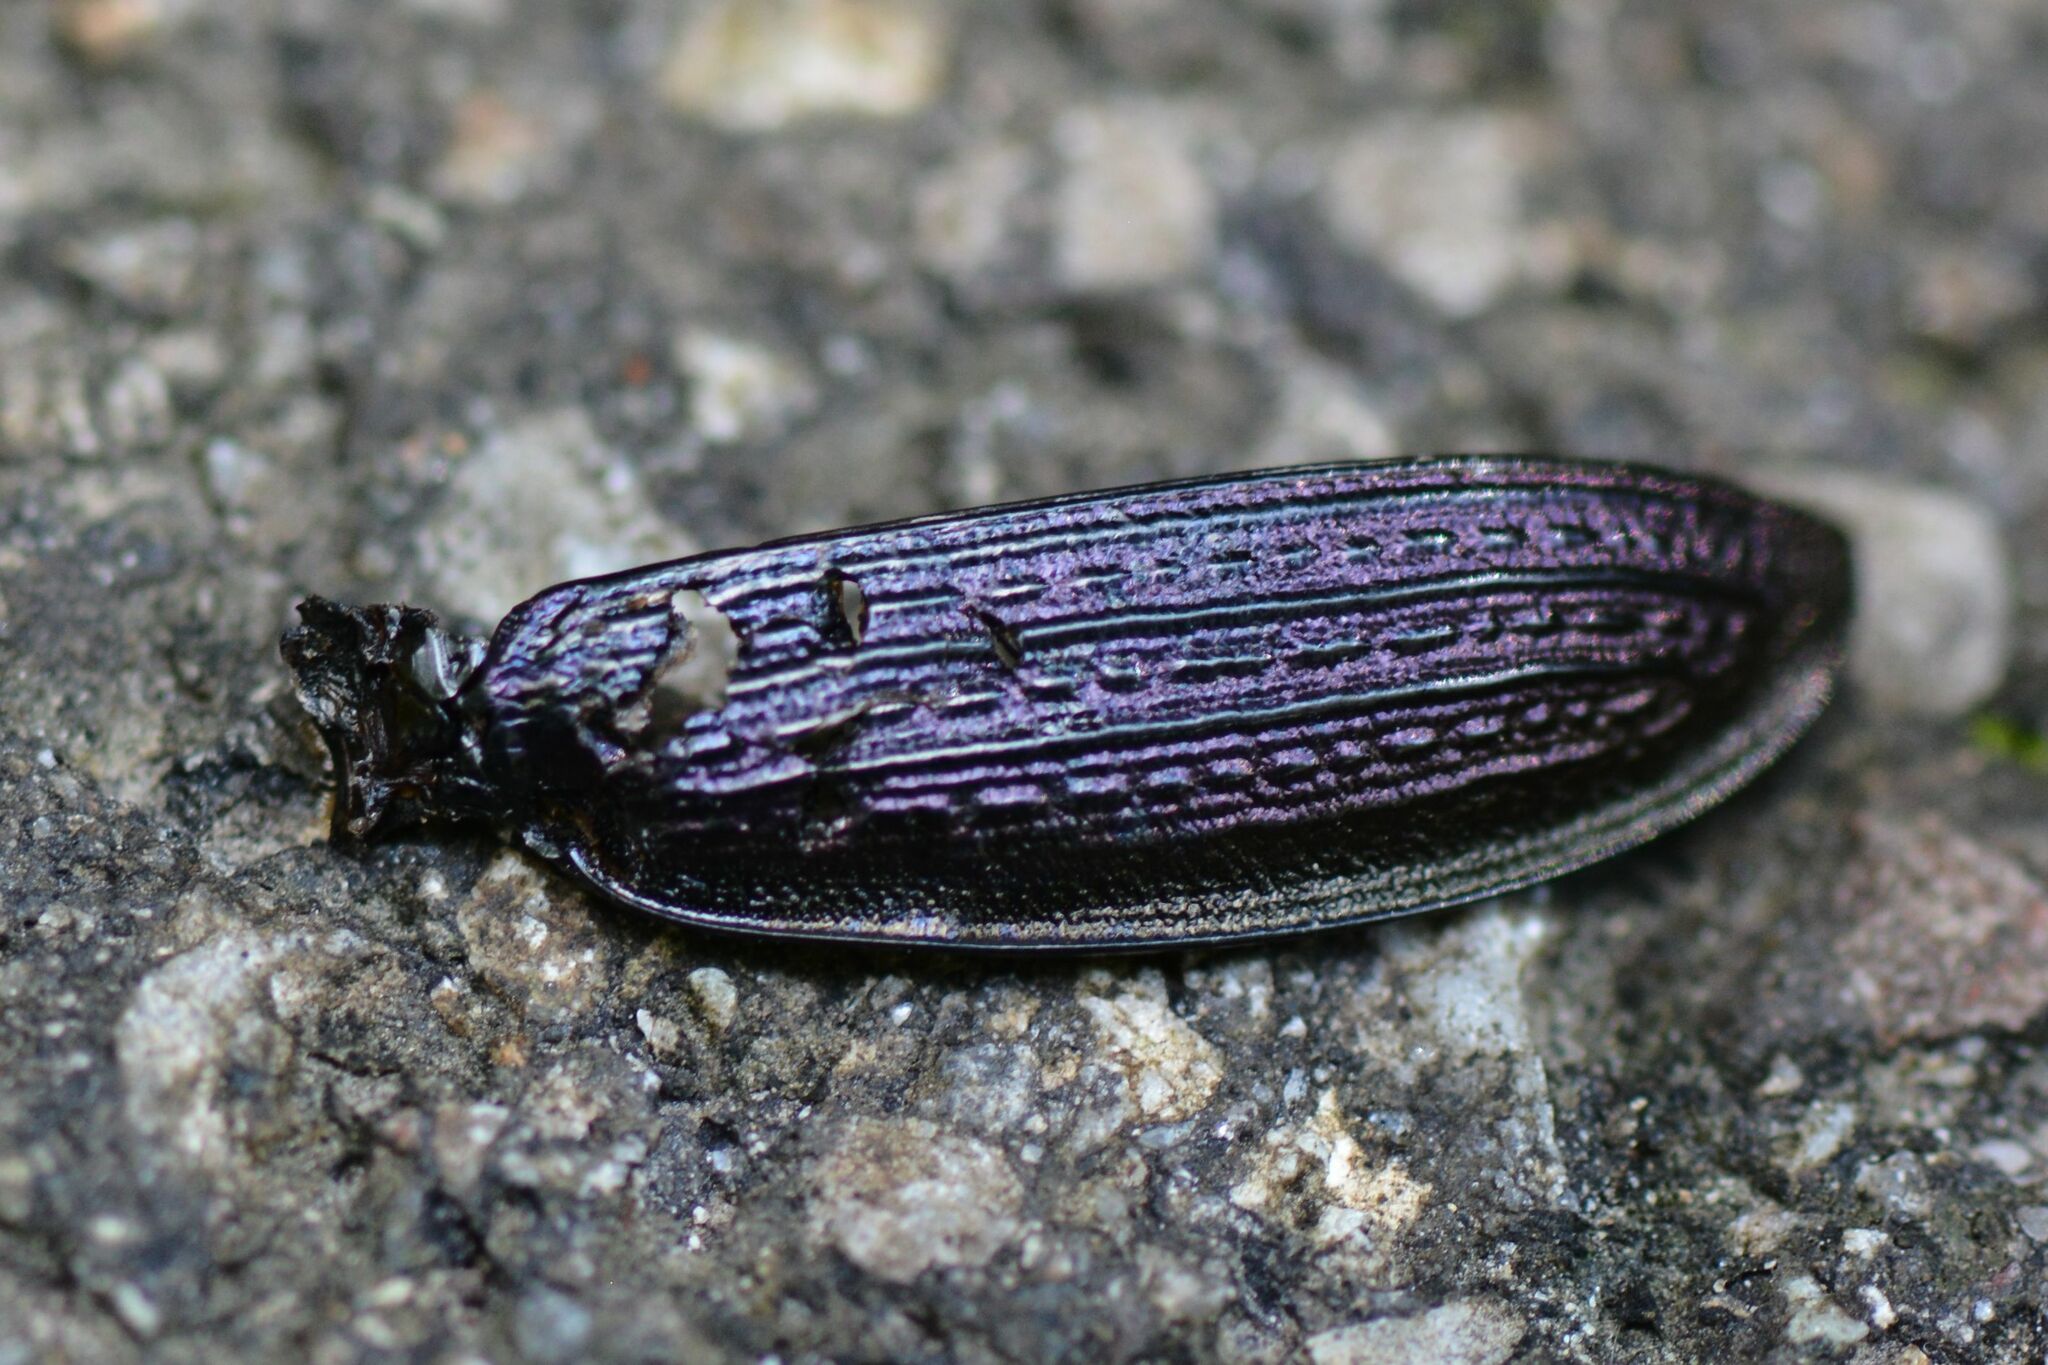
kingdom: Animalia
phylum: Arthropoda
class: Insecta
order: Coleoptera
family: Carabidae
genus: Carabus
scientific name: Carabus monilis
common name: Necklace ground beetle
